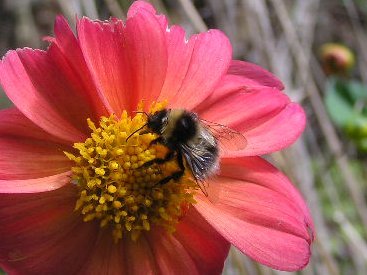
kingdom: Animalia
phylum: Arthropoda
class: Insecta
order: Hymenoptera
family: Apidae
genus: Megabombus
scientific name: Megabombus
